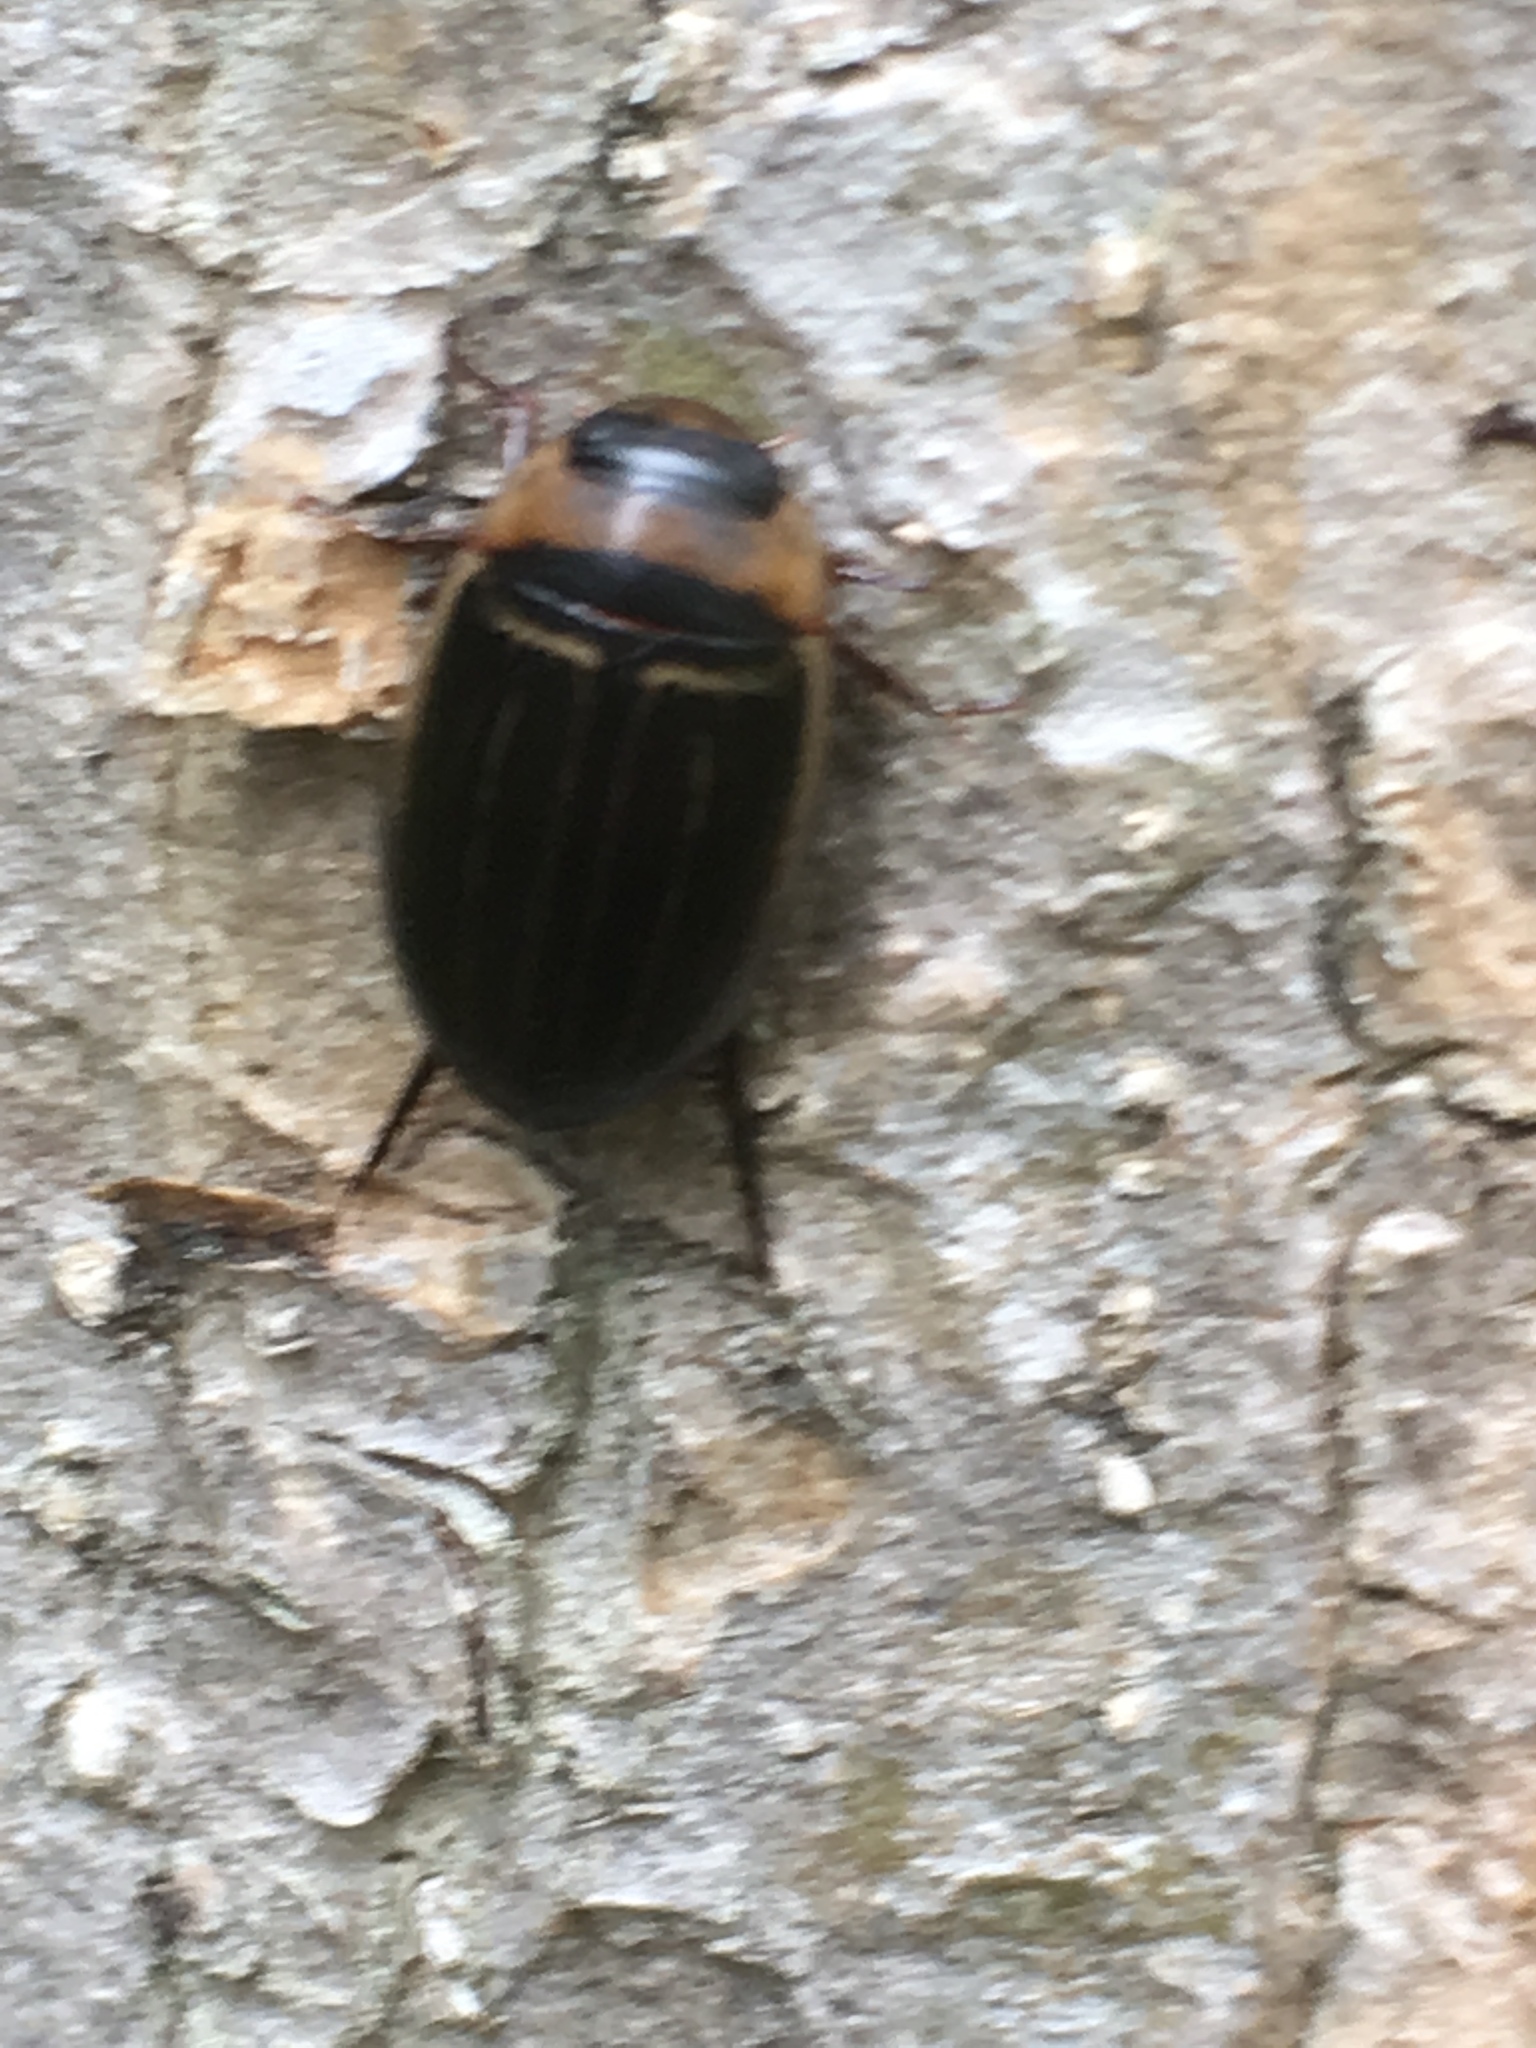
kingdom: Animalia
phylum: Arthropoda
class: Insecta
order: Coleoptera
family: Dytiscidae
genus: Hydaticus
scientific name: Hydaticus aruspex
